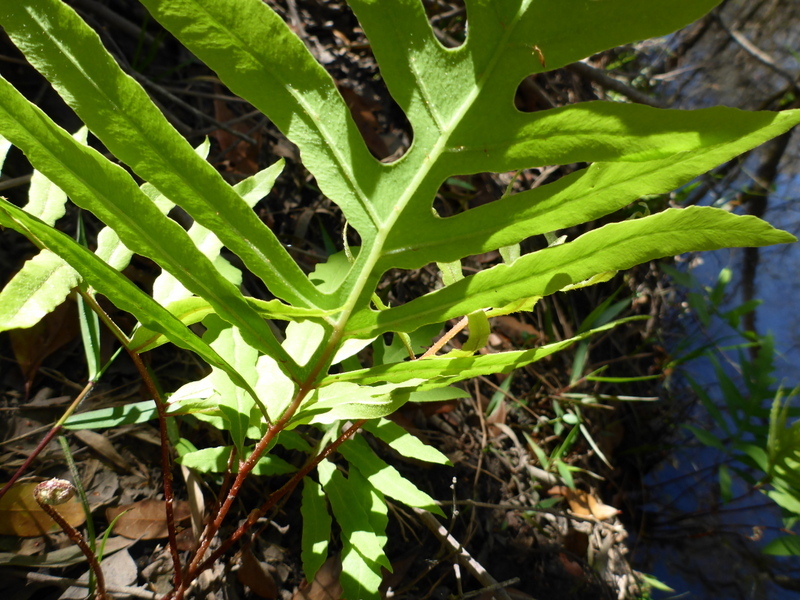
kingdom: Plantae
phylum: Tracheophyta
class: Polypodiopsida
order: Polypodiales
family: Onocleaceae
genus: Onoclea
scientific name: Onoclea sensibilis
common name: Sensitive fern
